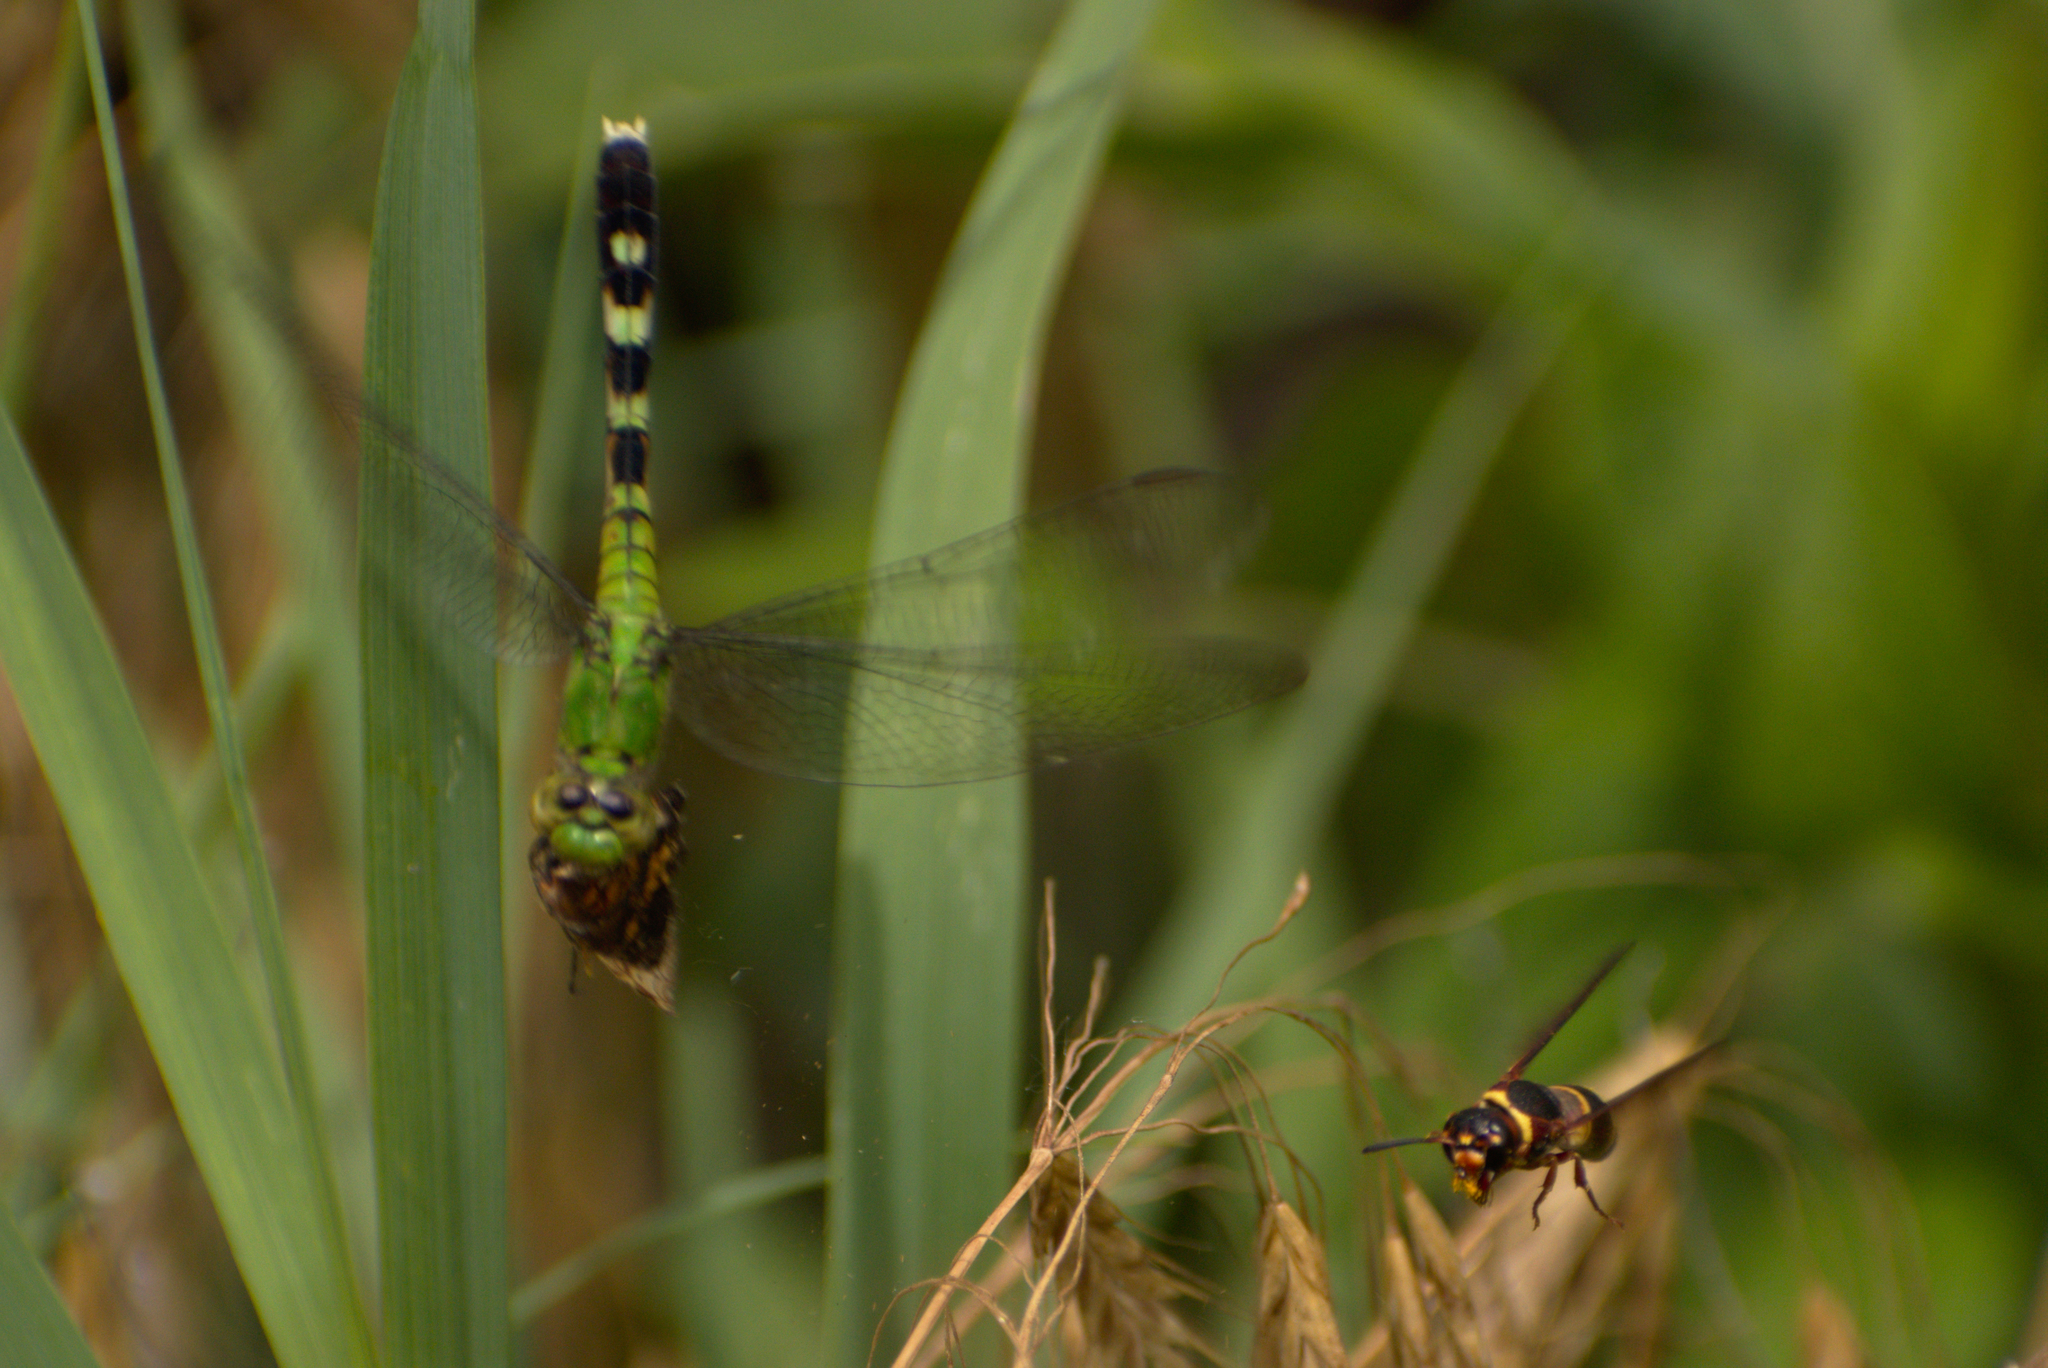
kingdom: Animalia
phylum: Arthropoda
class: Insecta
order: Odonata
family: Libellulidae
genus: Erythemis
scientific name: Erythemis simplicicollis
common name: Eastern pondhawk
